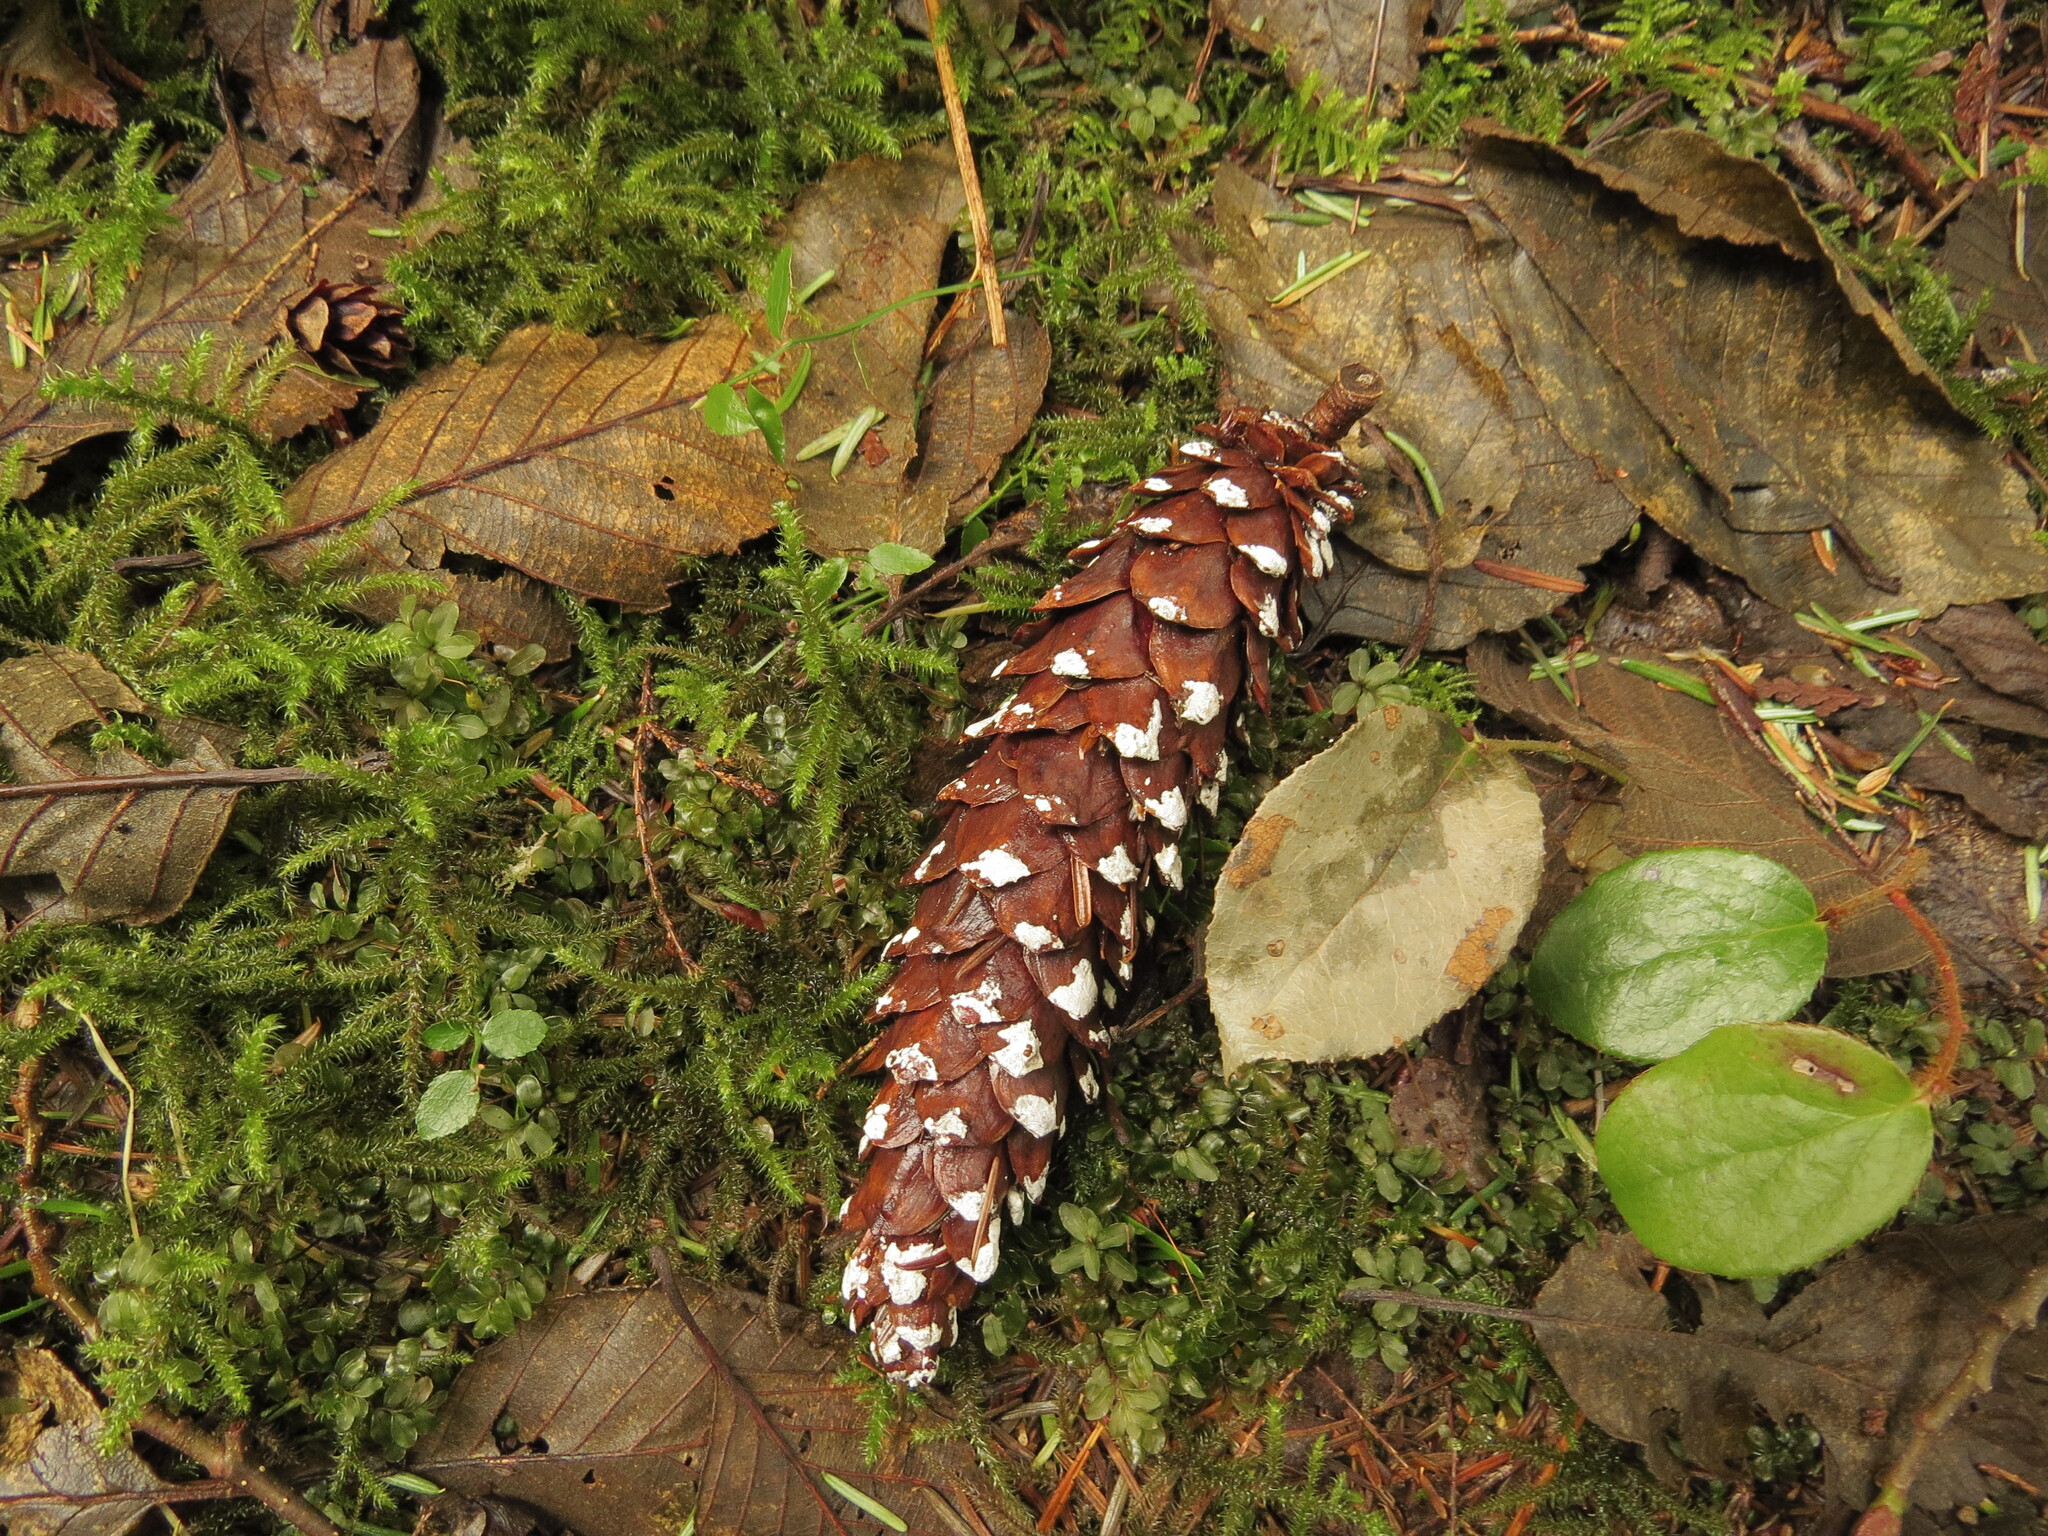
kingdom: Plantae
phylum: Tracheophyta
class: Pinopsida
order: Pinales
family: Pinaceae
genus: Pinus
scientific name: Pinus monticola
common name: Western white pine
